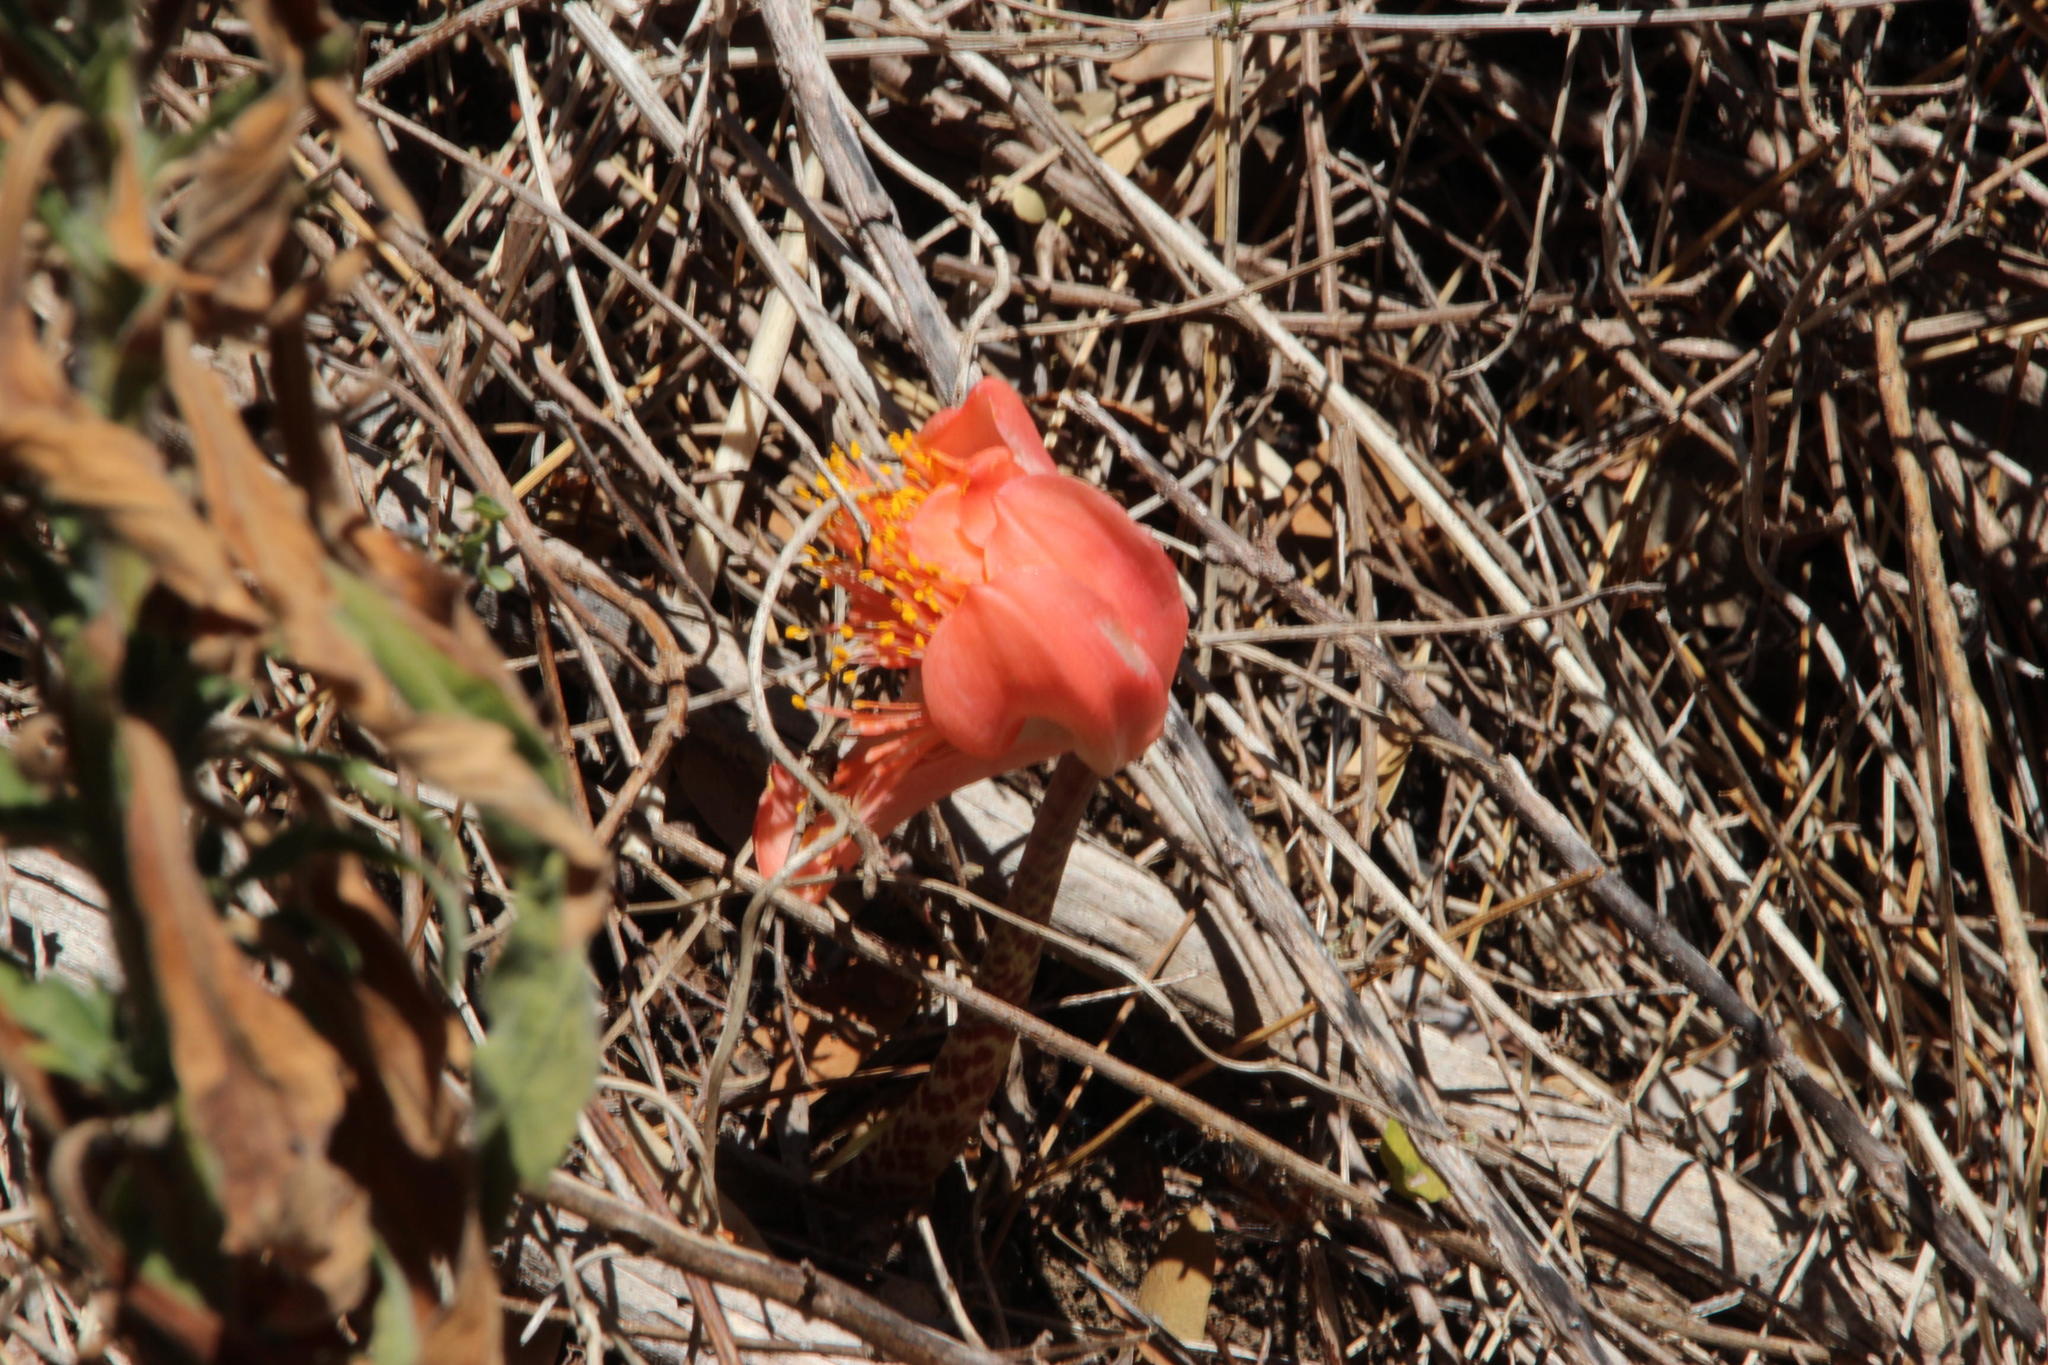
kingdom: Plantae
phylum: Tracheophyta
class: Liliopsida
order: Asparagales
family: Amaryllidaceae
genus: Haemanthus
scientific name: Haemanthus coccineus
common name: Cape-tulip
